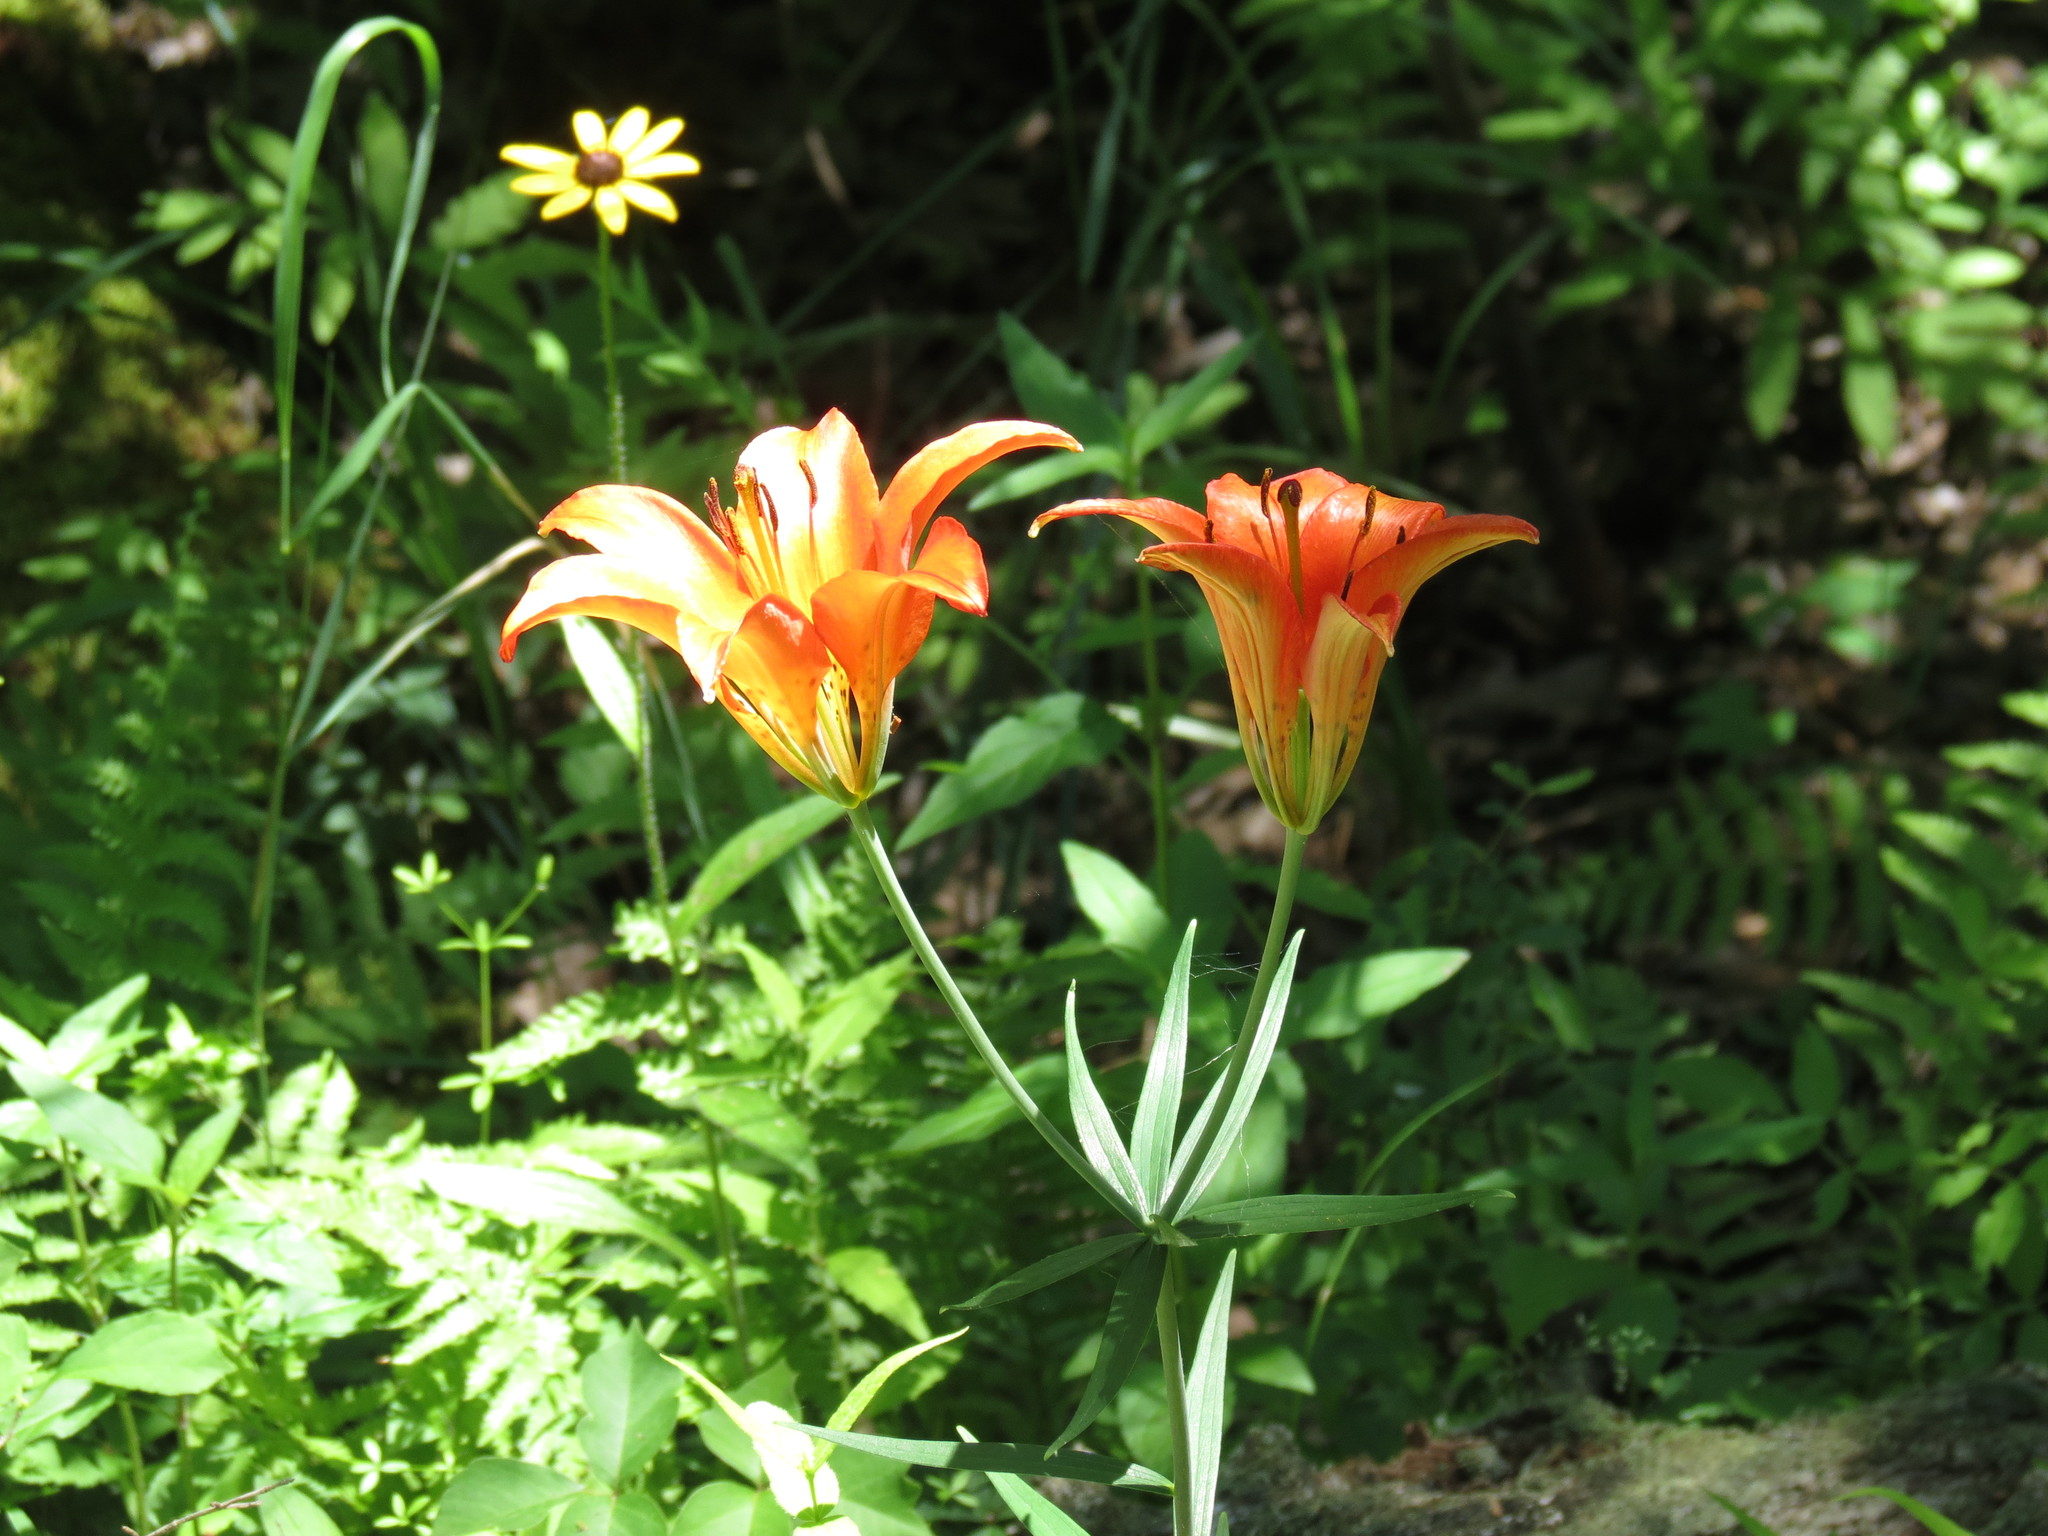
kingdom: Plantae
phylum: Tracheophyta
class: Liliopsida
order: Liliales
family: Liliaceae
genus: Lilium
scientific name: Lilium philadelphicum
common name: Red lily
